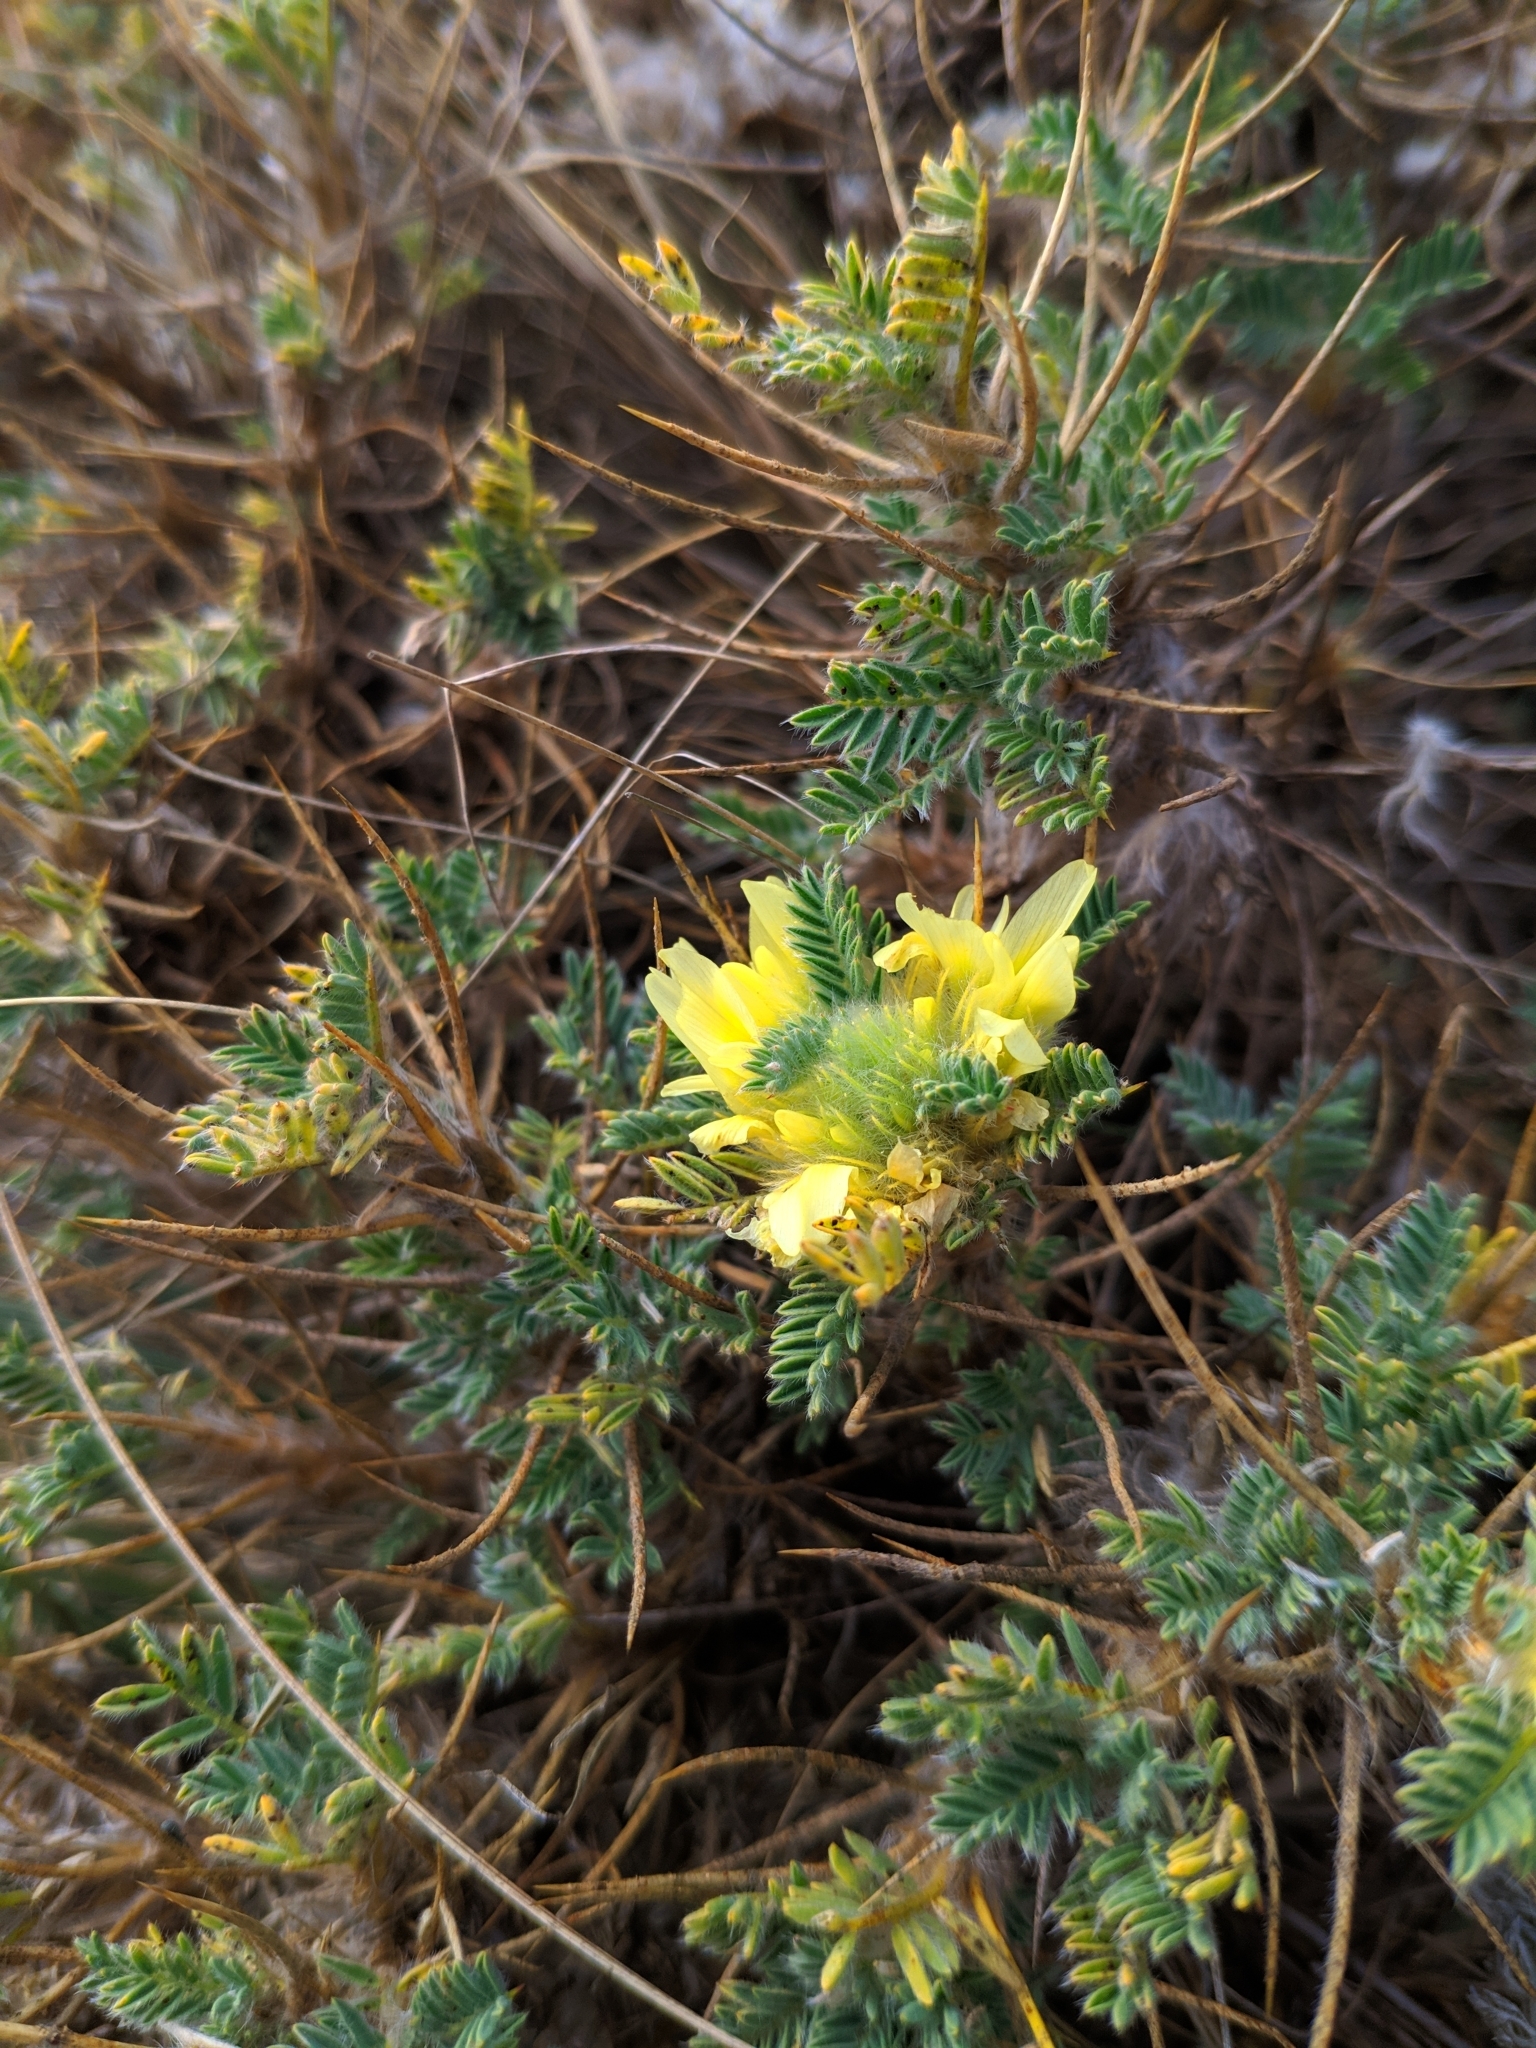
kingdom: Plantae
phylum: Tracheophyta
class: Magnoliopsida
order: Fabales
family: Fabaceae
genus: Astragalus
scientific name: Astragalus aureus
